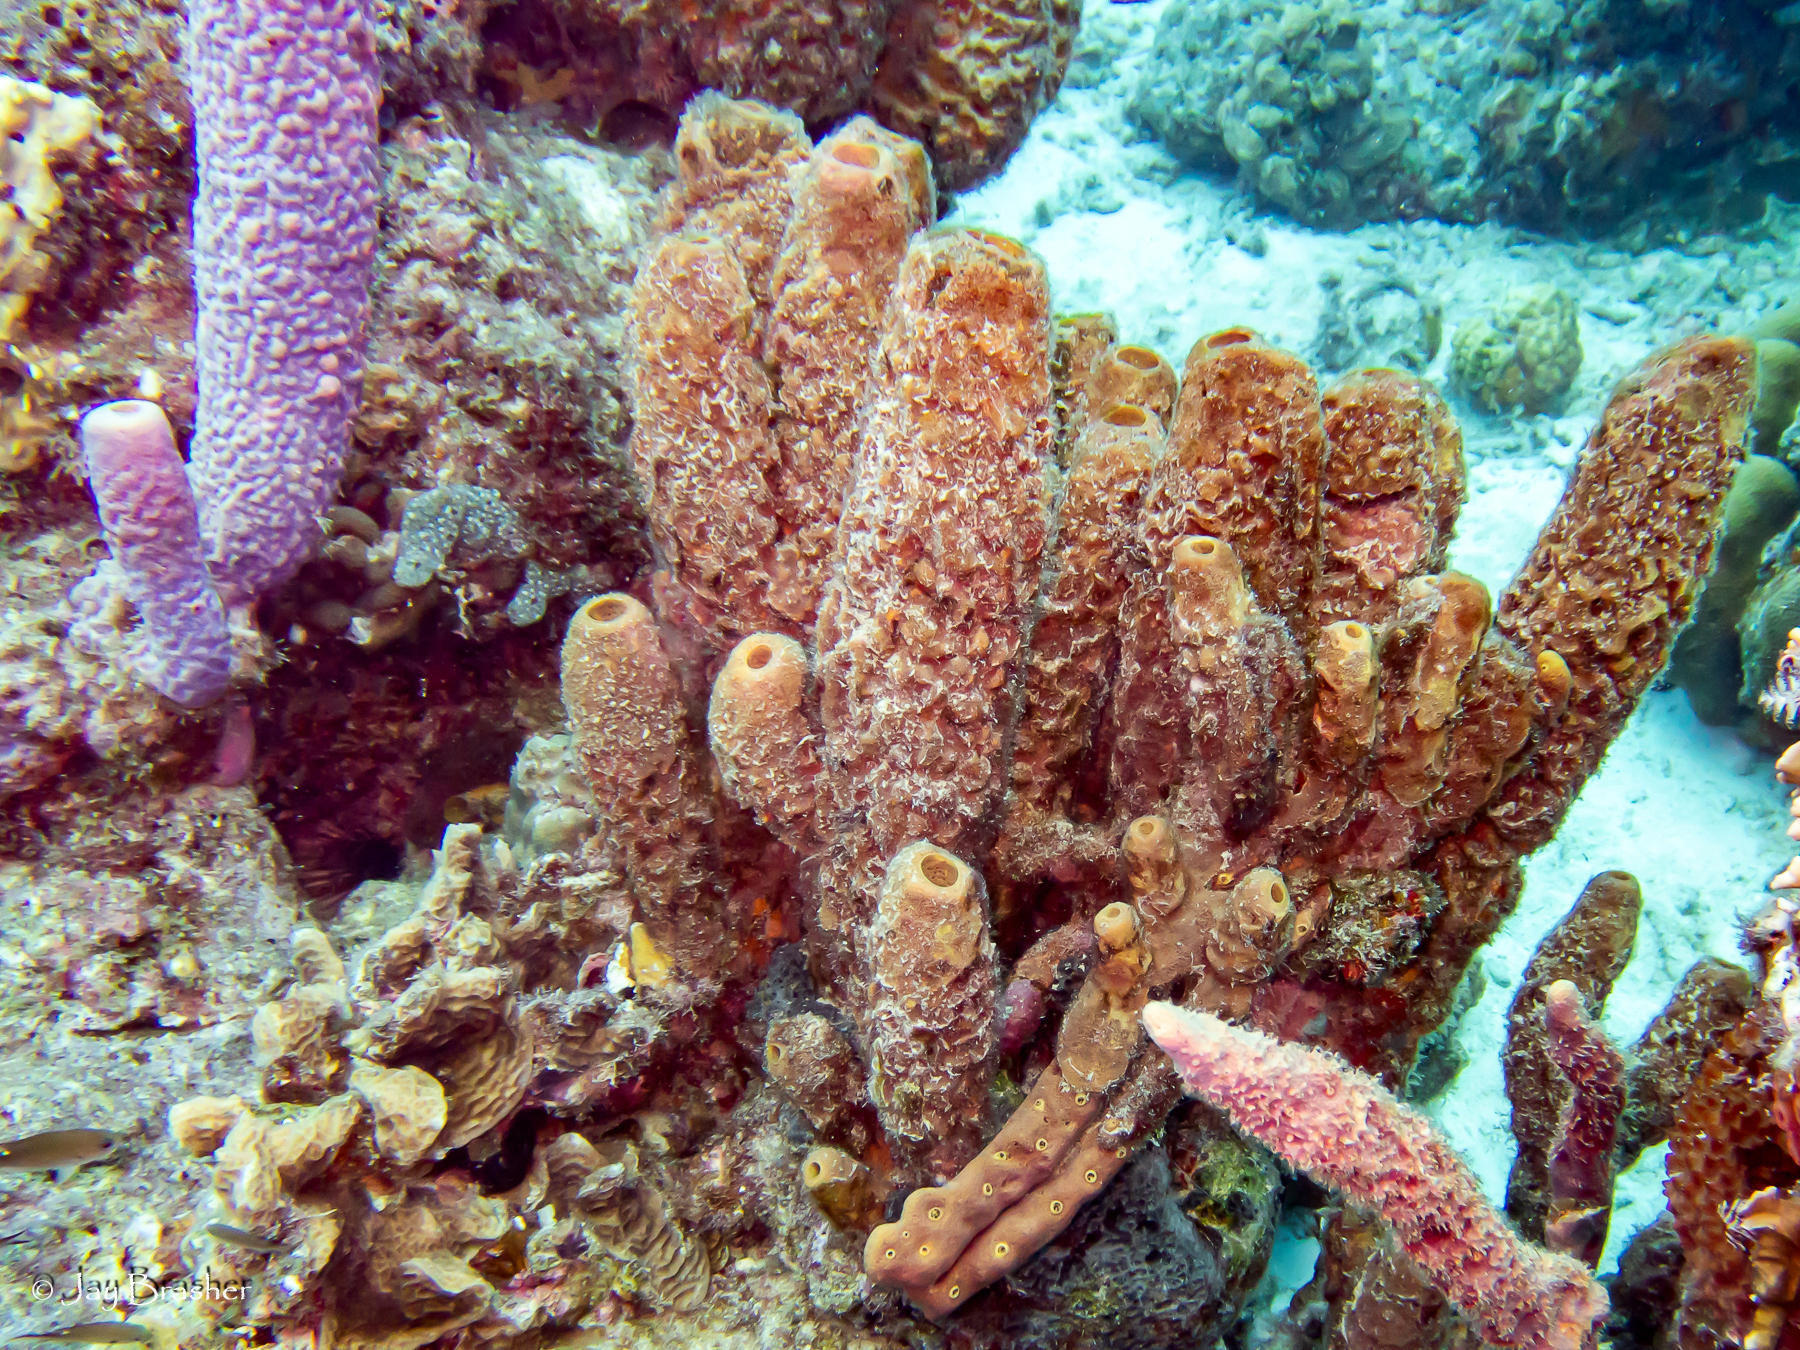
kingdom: Animalia
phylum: Porifera
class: Demospongiae
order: Verongiida
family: Aplysinidae
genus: Aplysina
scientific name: Aplysina cauliformis
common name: Branching candle sponge
